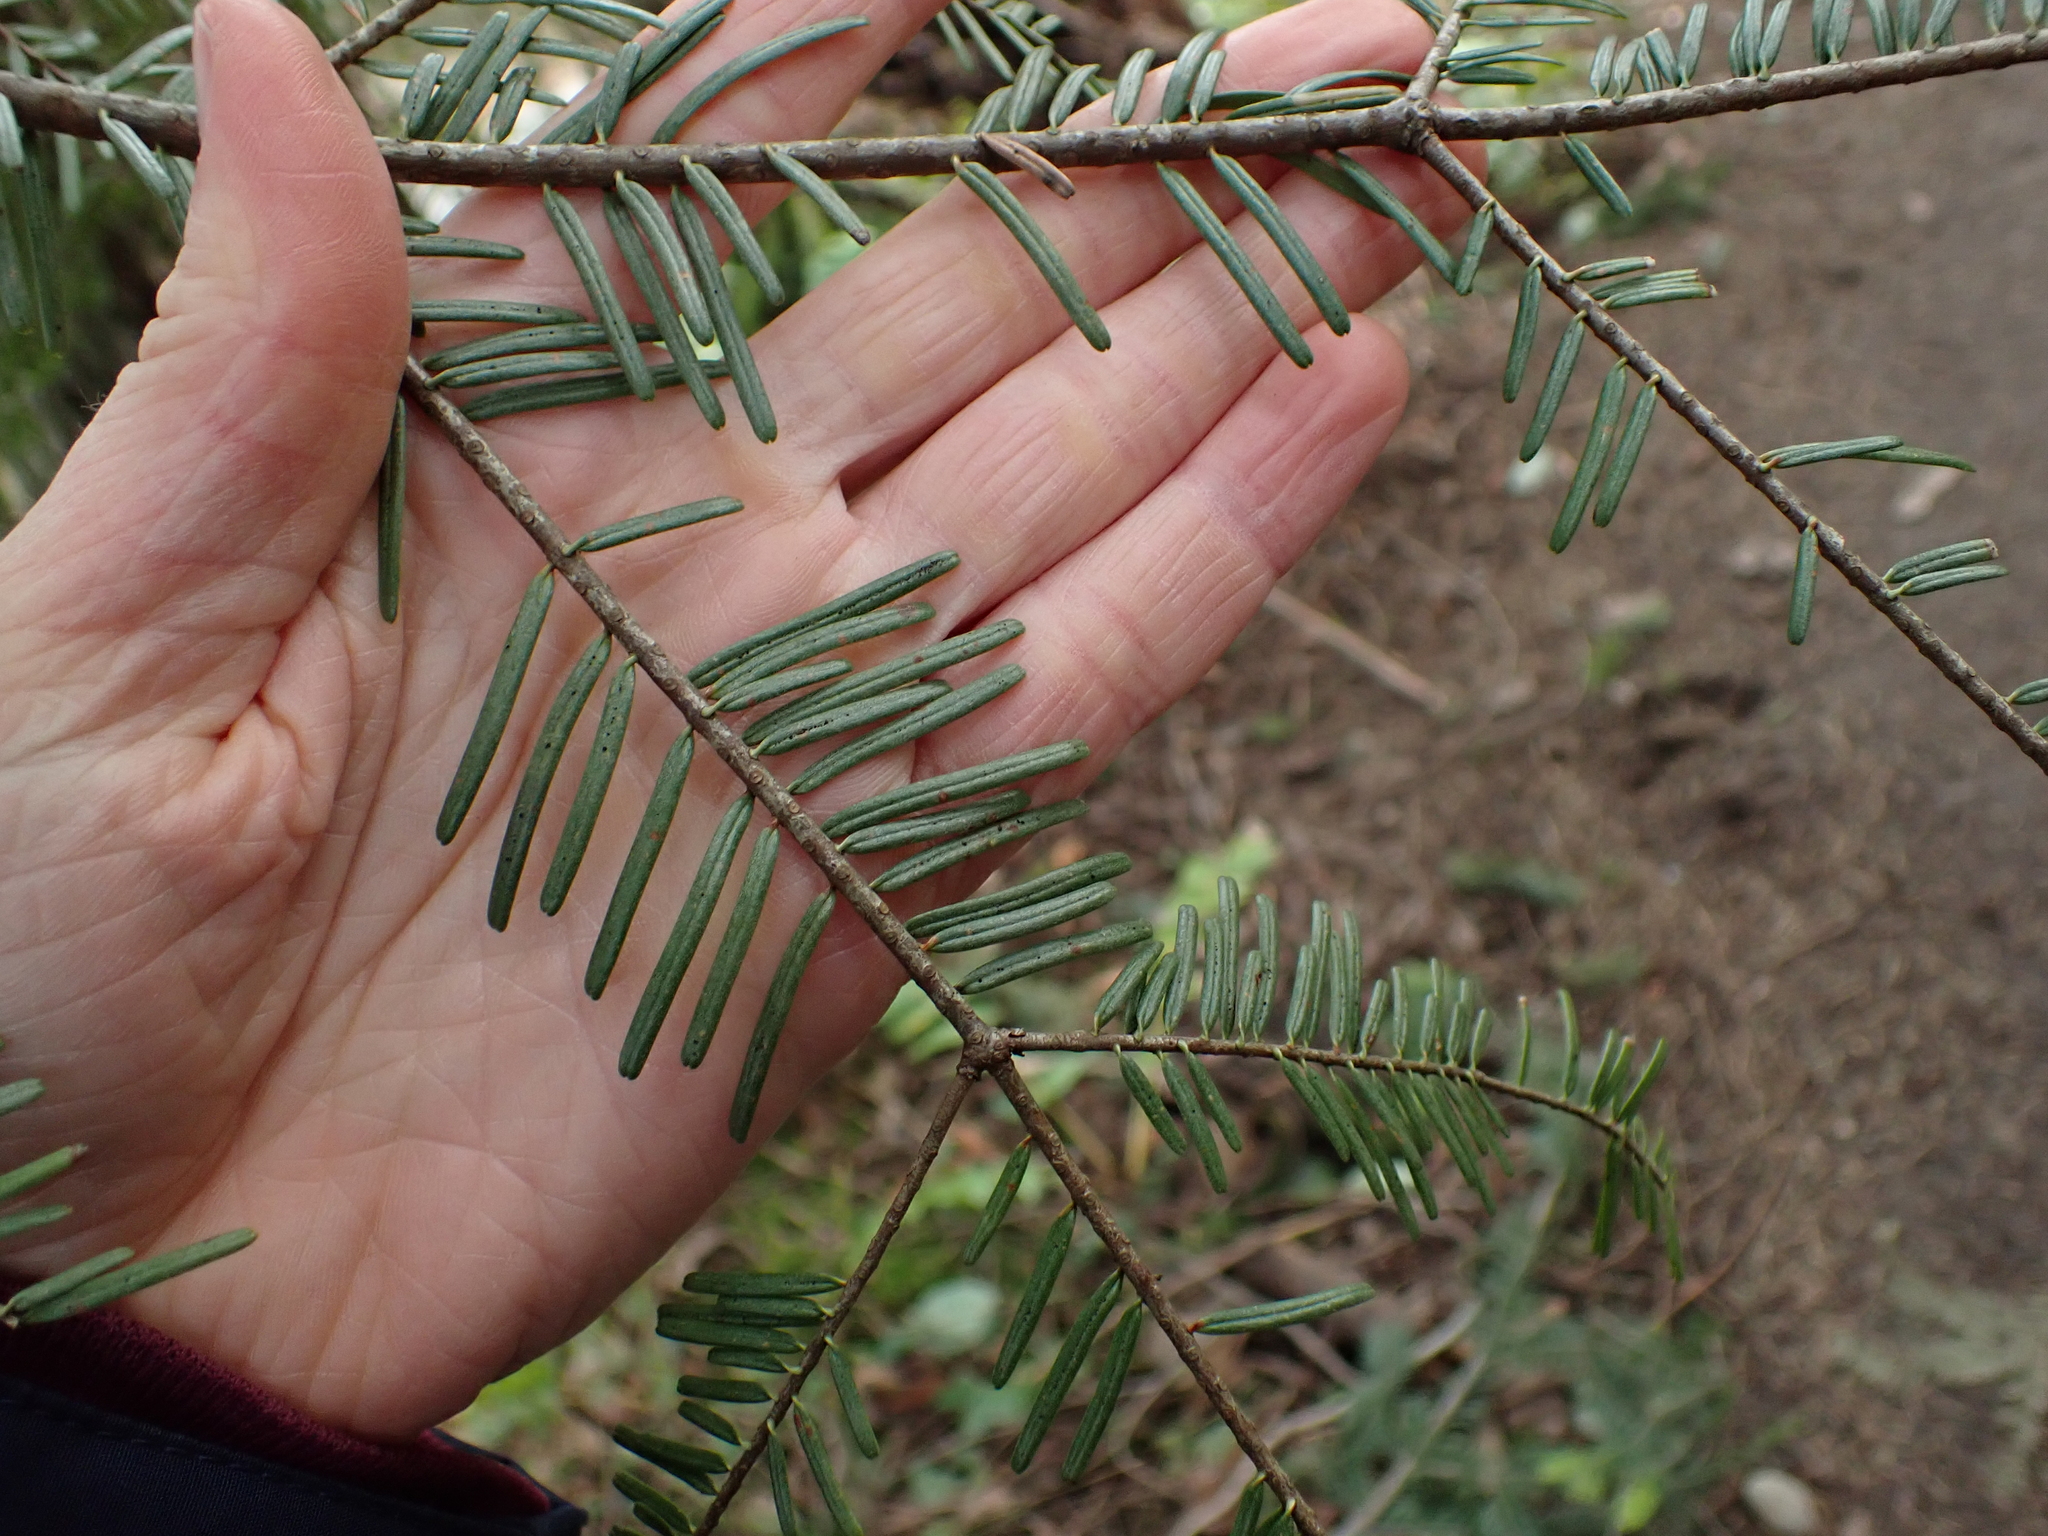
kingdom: Plantae
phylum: Tracheophyta
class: Pinopsida
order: Pinales
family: Pinaceae
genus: Abies
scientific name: Abies grandis
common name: Giant fir
